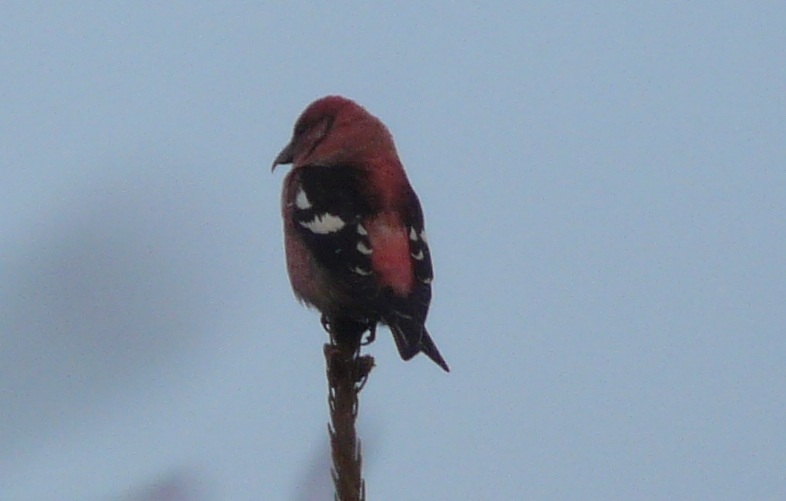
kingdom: Animalia
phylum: Chordata
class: Aves
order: Passeriformes
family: Fringillidae
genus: Loxia
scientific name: Loxia leucoptera
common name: Two-barred crossbill
